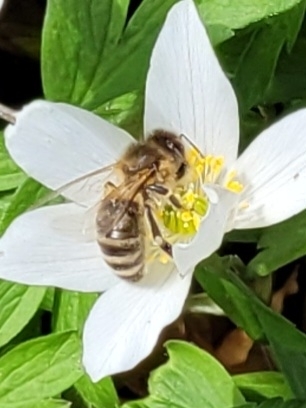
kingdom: Animalia
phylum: Arthropoda
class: Insecta
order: Hymenoptera
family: Apidae
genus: Apis
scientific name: Apis mellifera
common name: Honey bee
